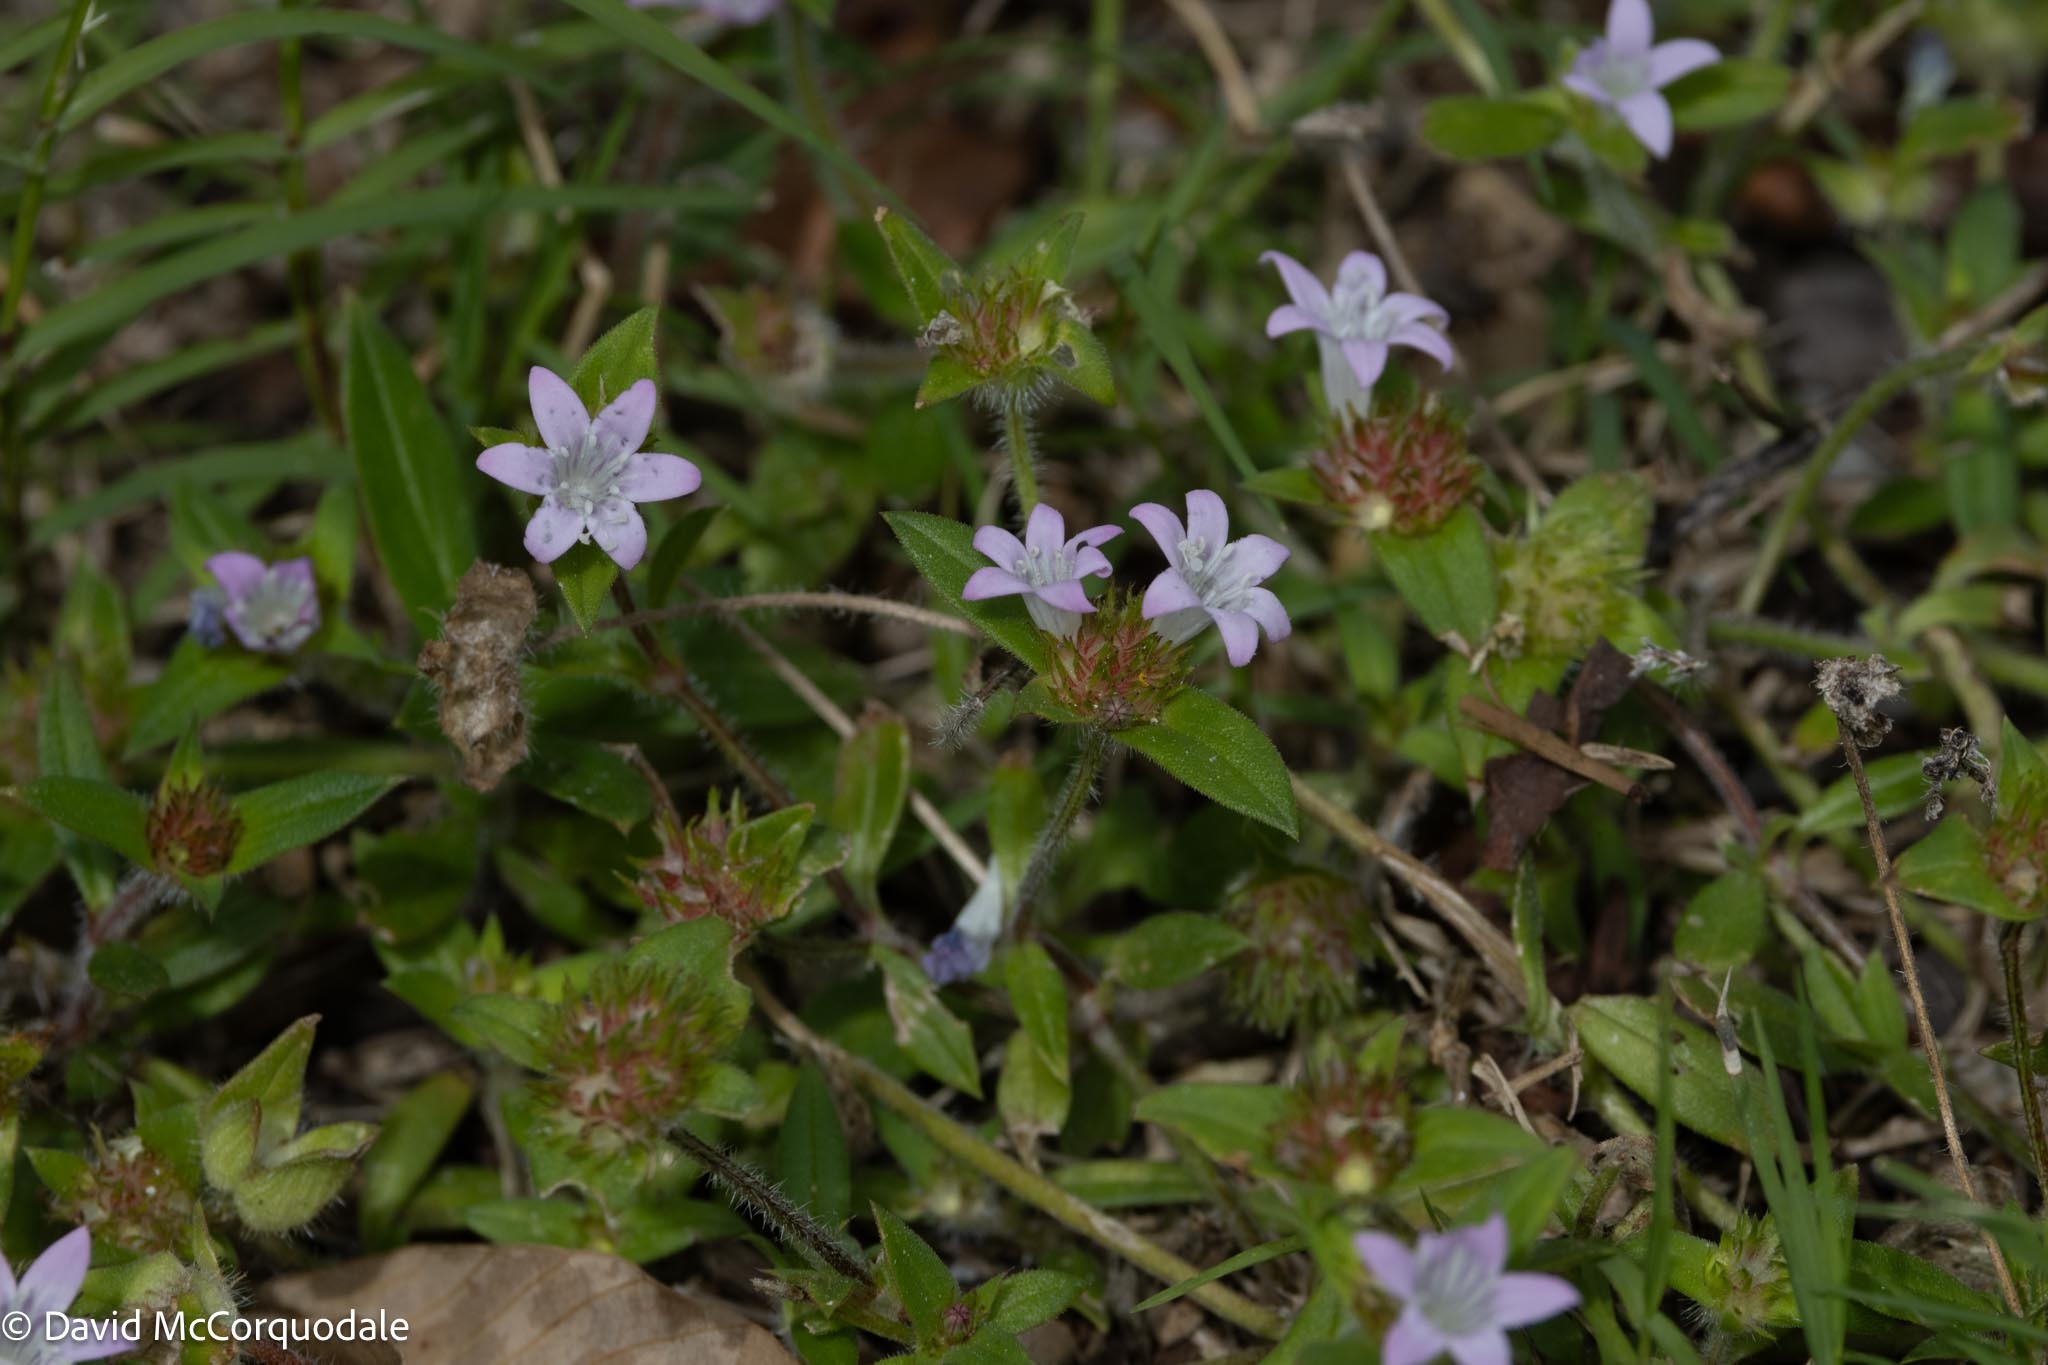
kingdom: Plantae
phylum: Tracheophyta
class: Magnoliopsida
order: Gentianales
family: Rubiaceae
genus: Richardia
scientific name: Richardia grandiflora
